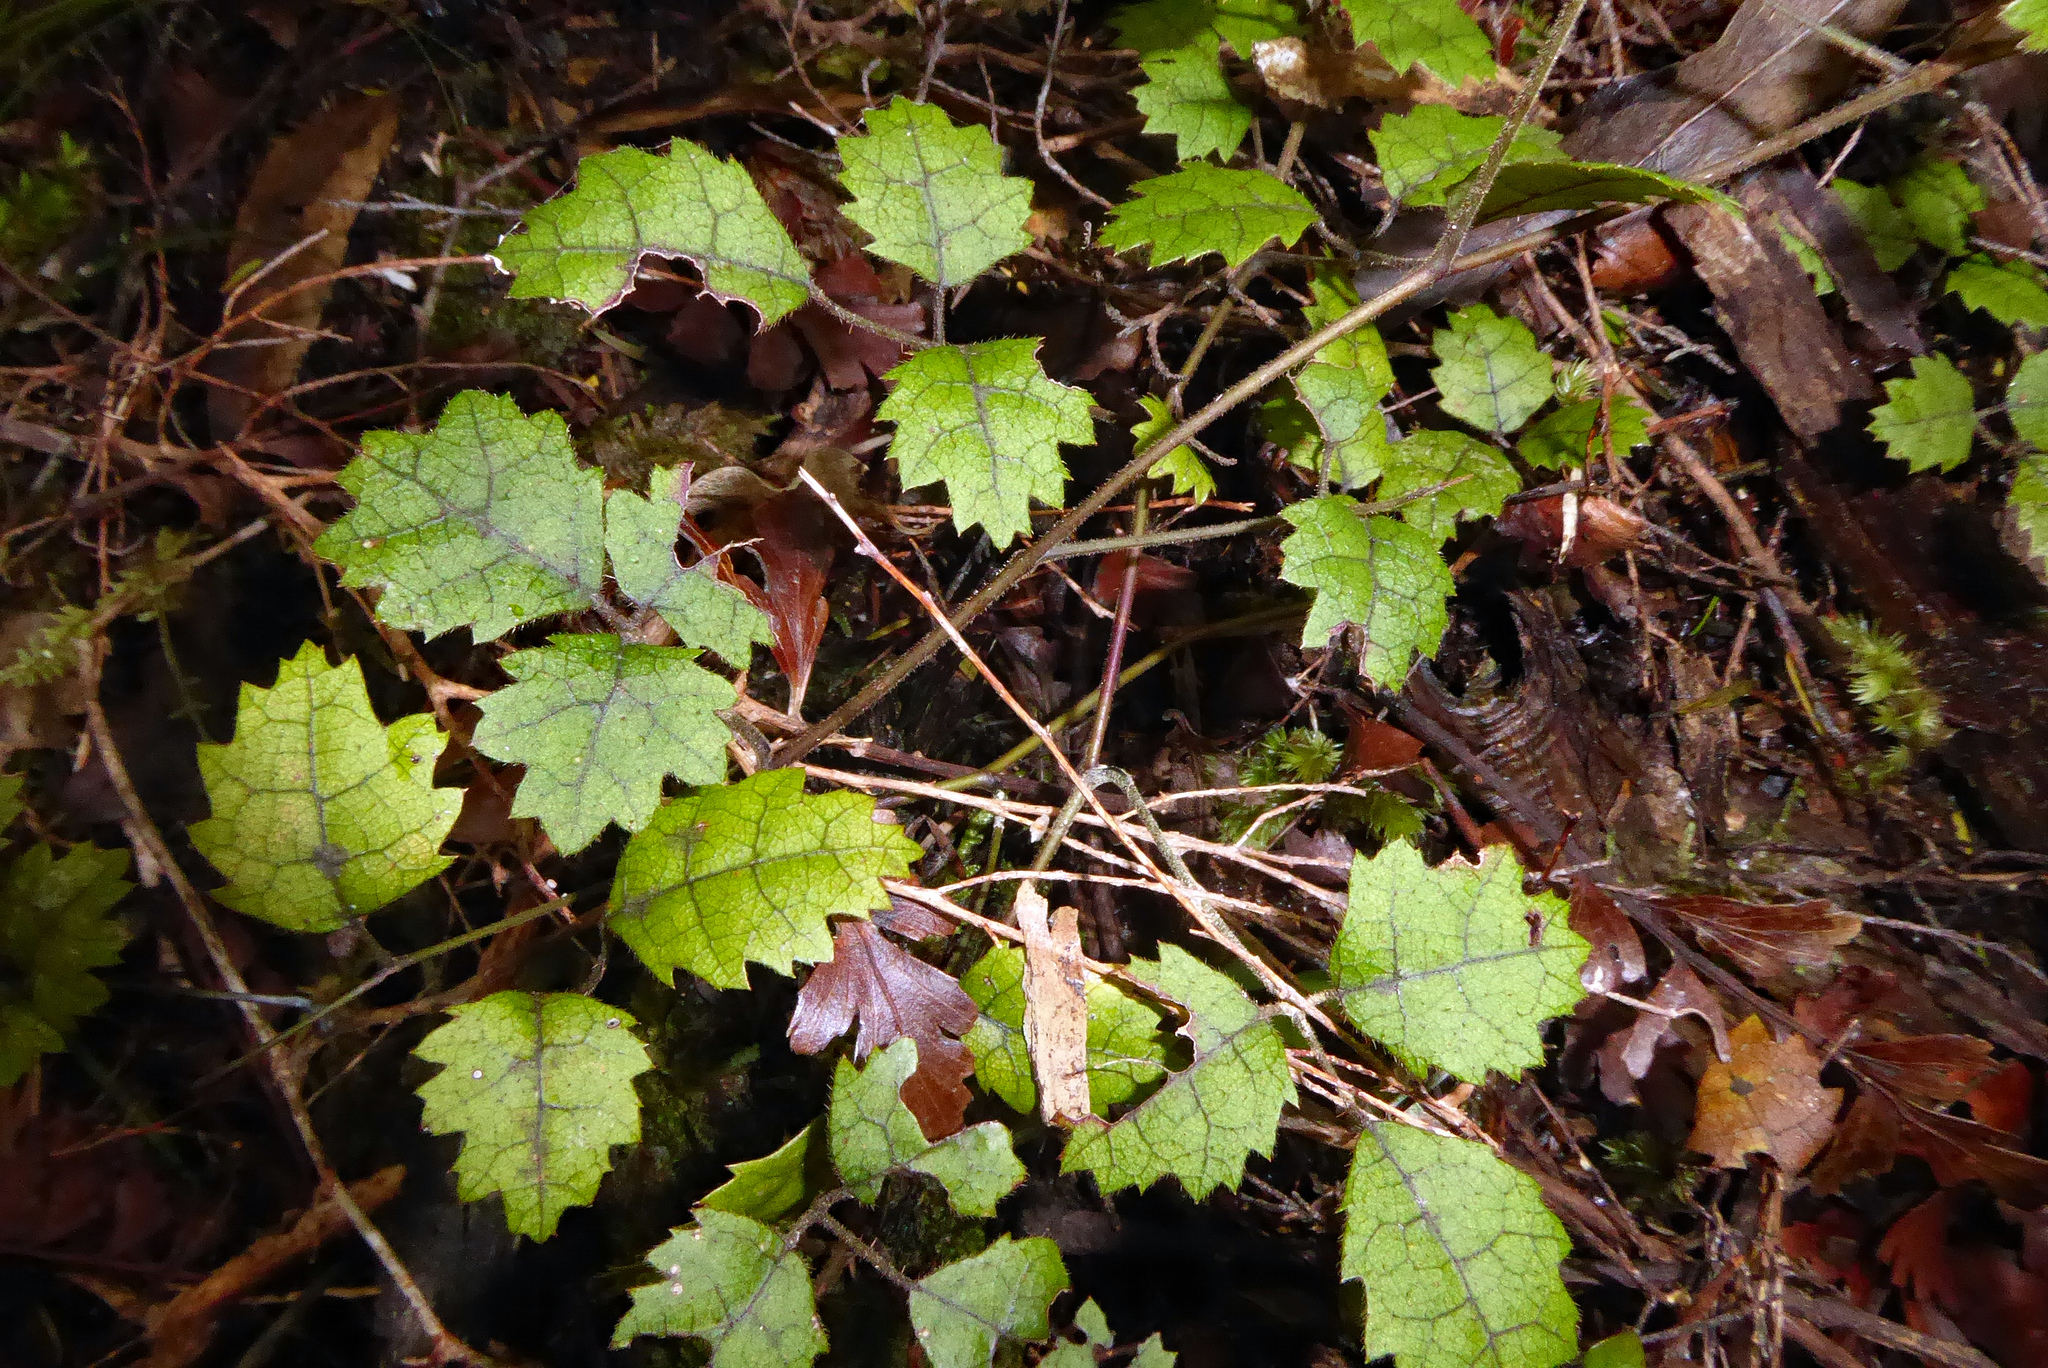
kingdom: Plantae
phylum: Tracheophyta
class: Magnoliopsida
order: Rosales
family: Rosaceae
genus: Rubus
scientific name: Rubus australis
